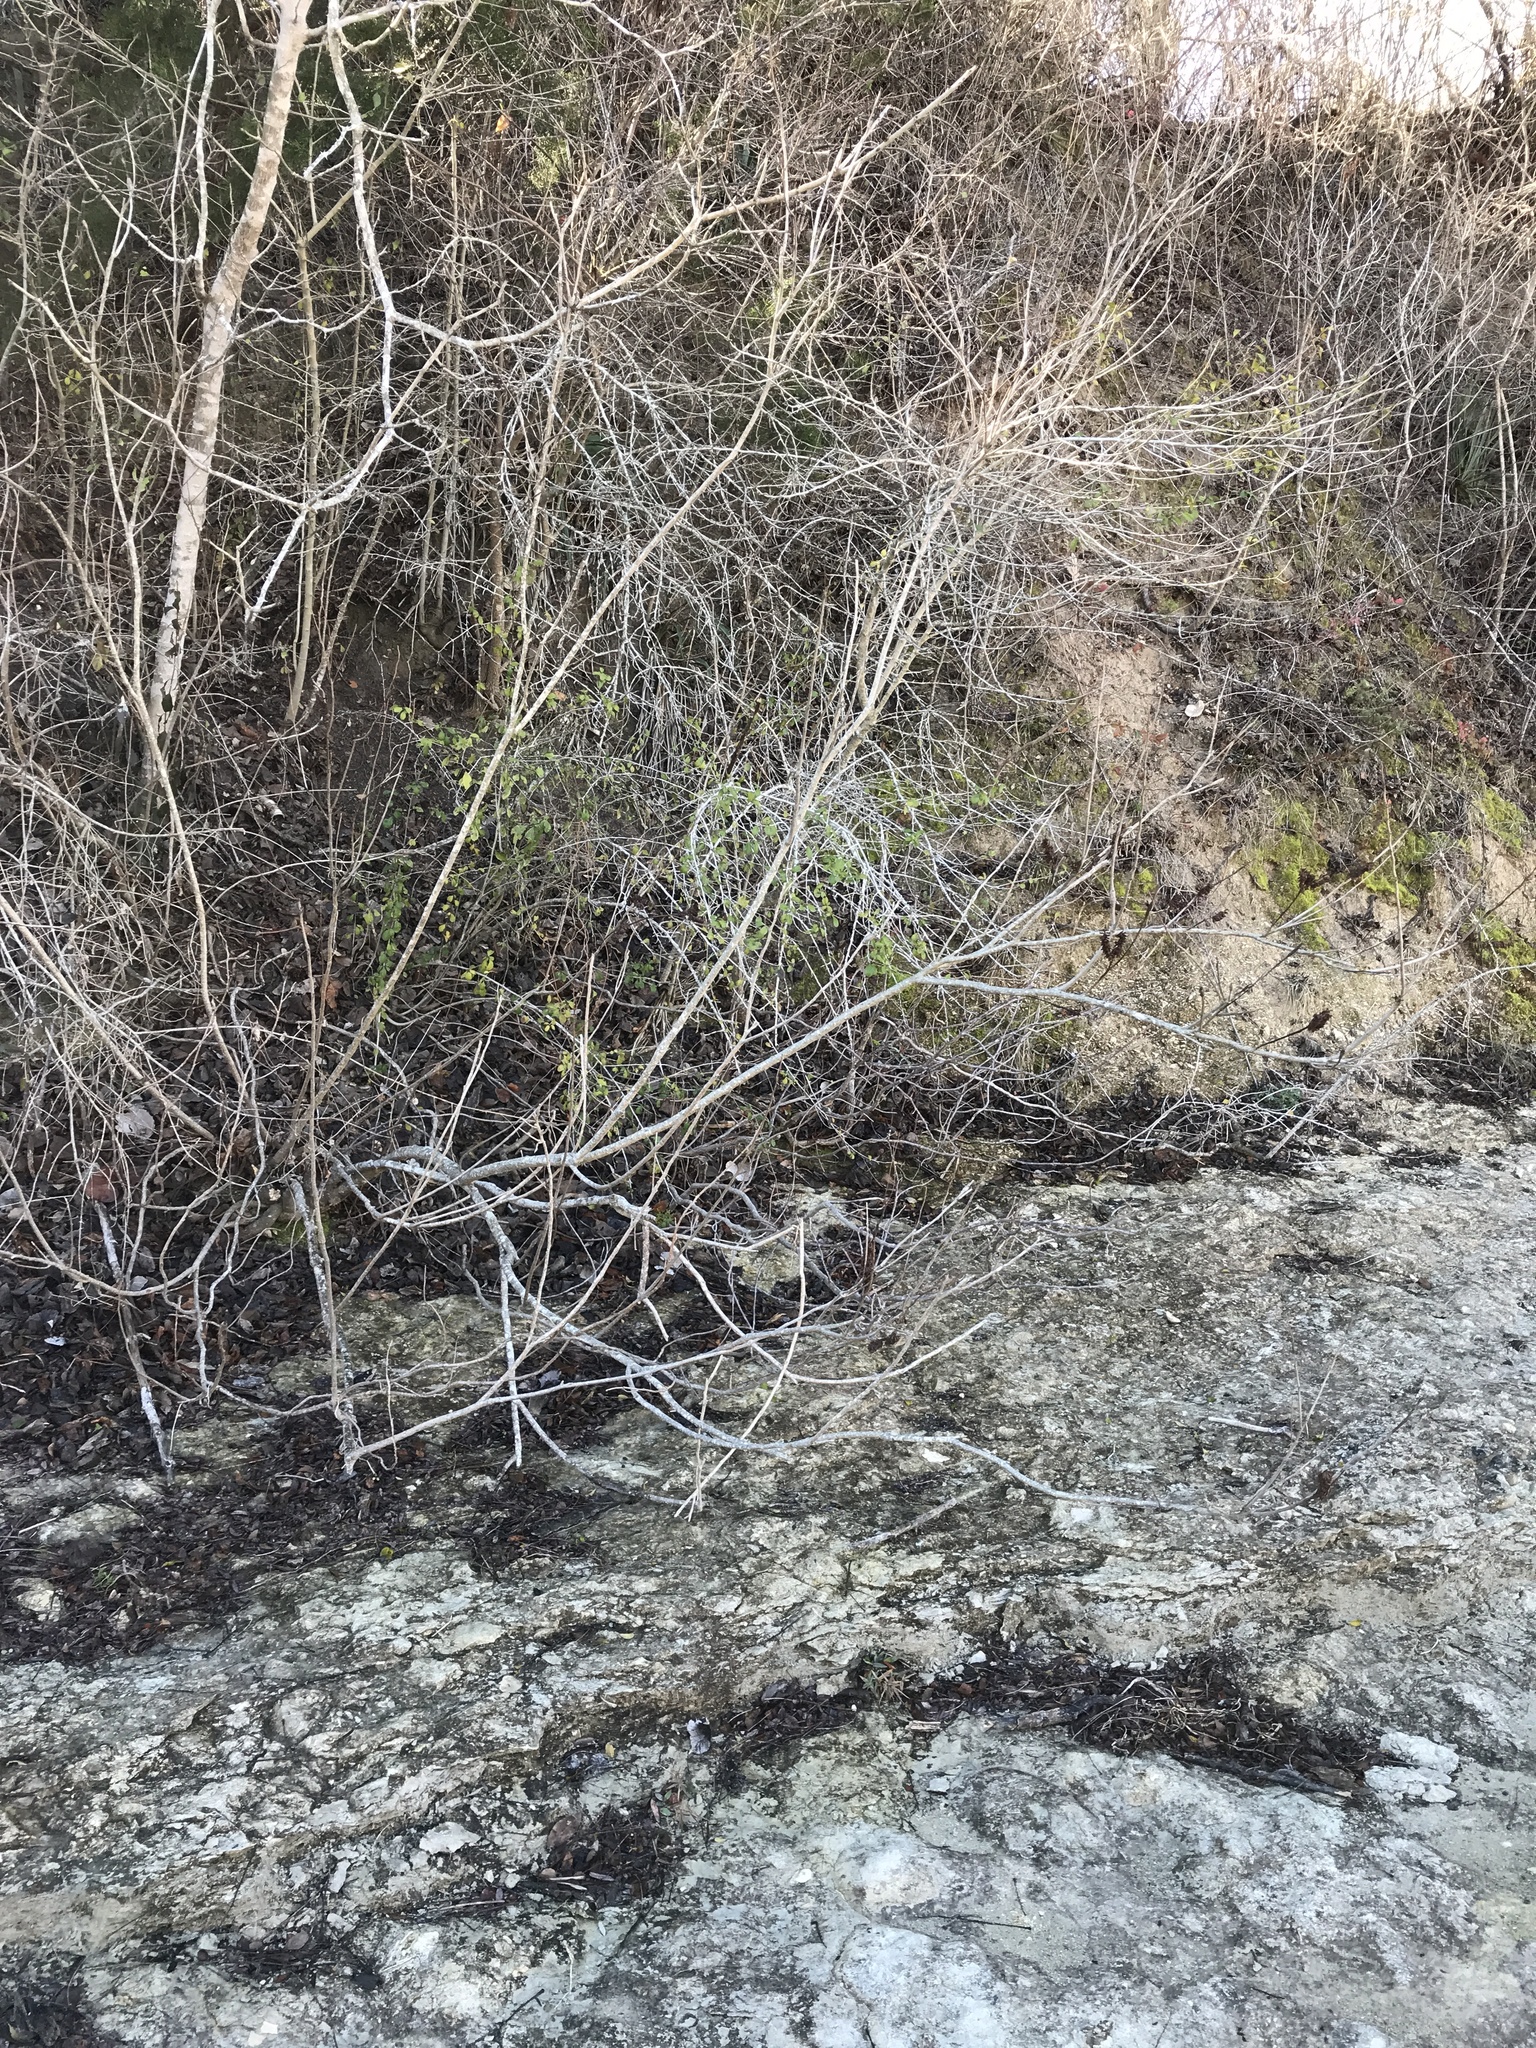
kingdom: Plantae
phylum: Tracheophyta
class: Magnoliopsida
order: Fabales
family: Fabaceae
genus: Amorpha
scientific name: Amorpha fruticosa
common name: False indigo
